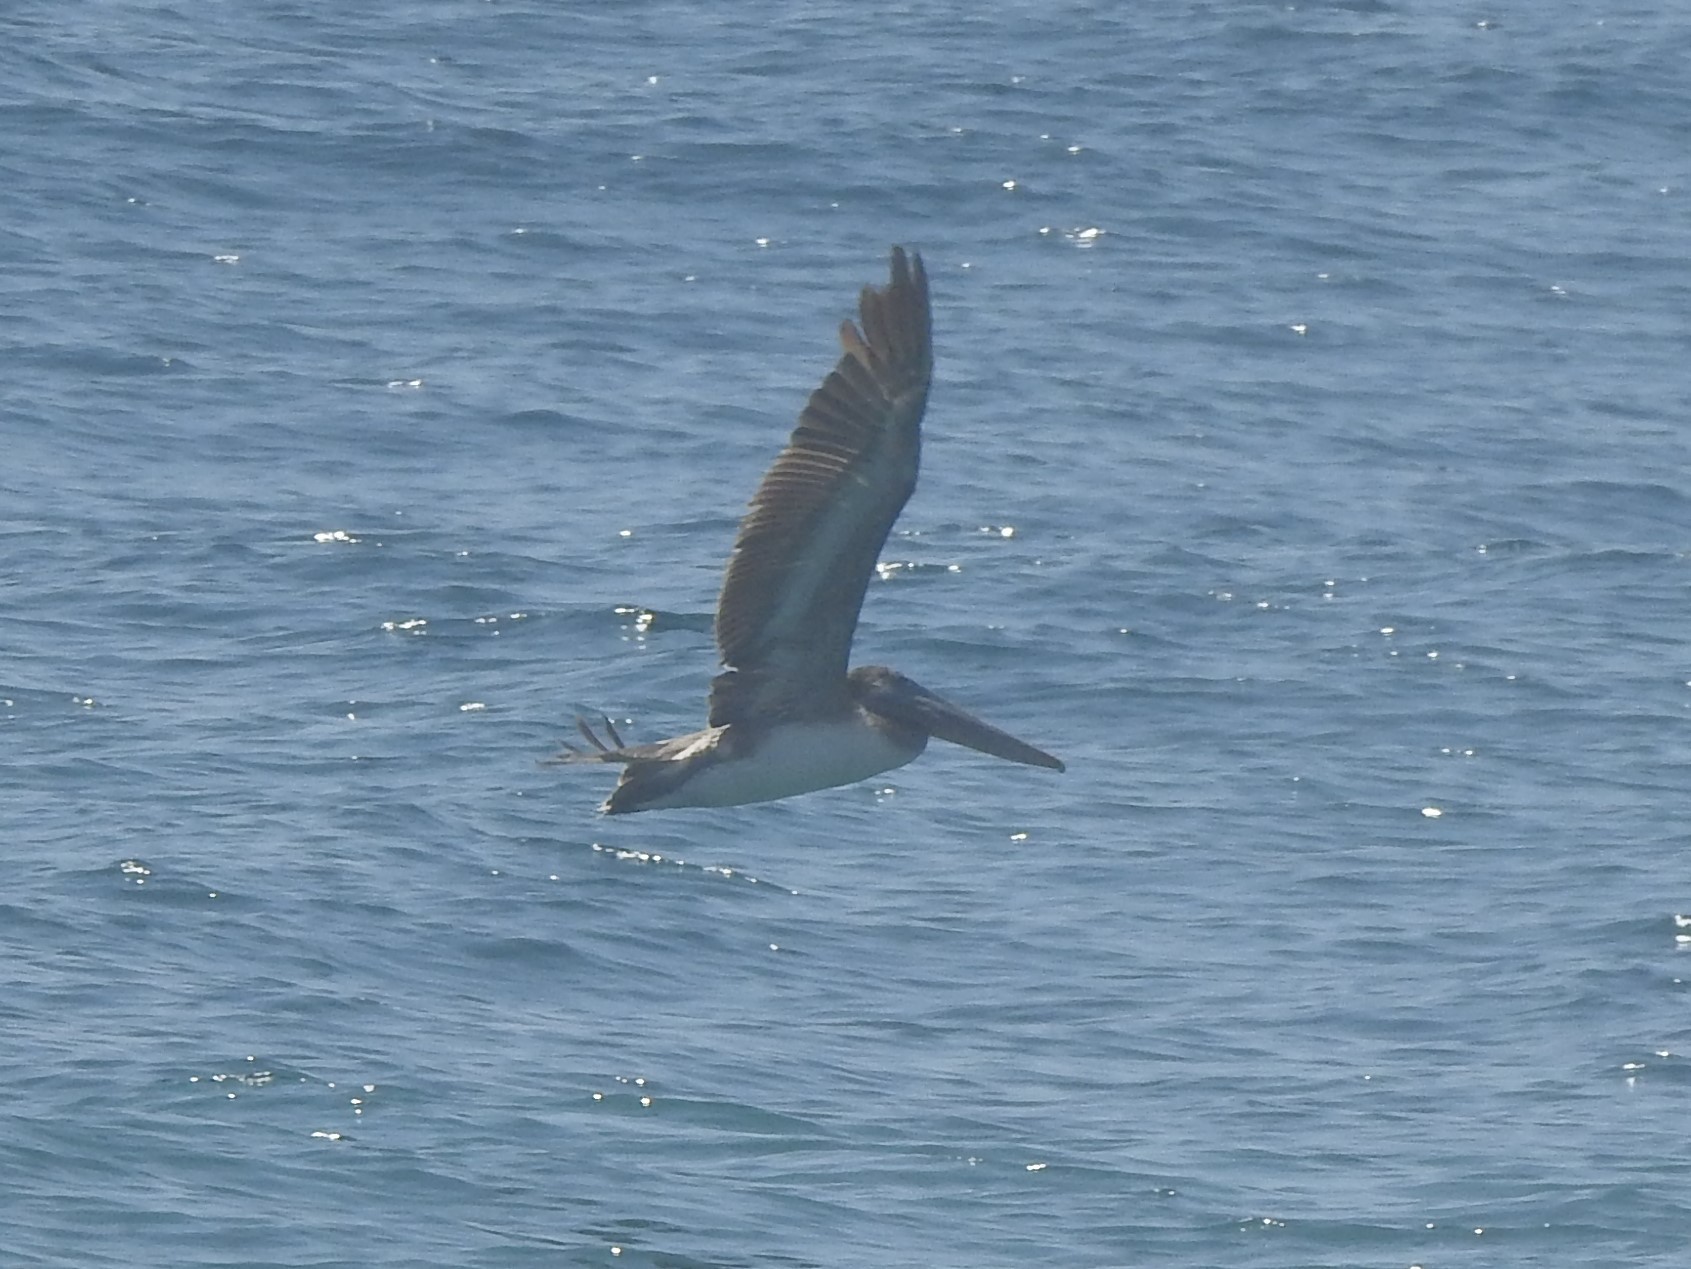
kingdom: Animalia
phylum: Chordata
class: Aves
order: Pelecaniformes
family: Pelecanidae
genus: Pelecanus
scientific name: Pelecanus occidentalis
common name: Brown pelican
